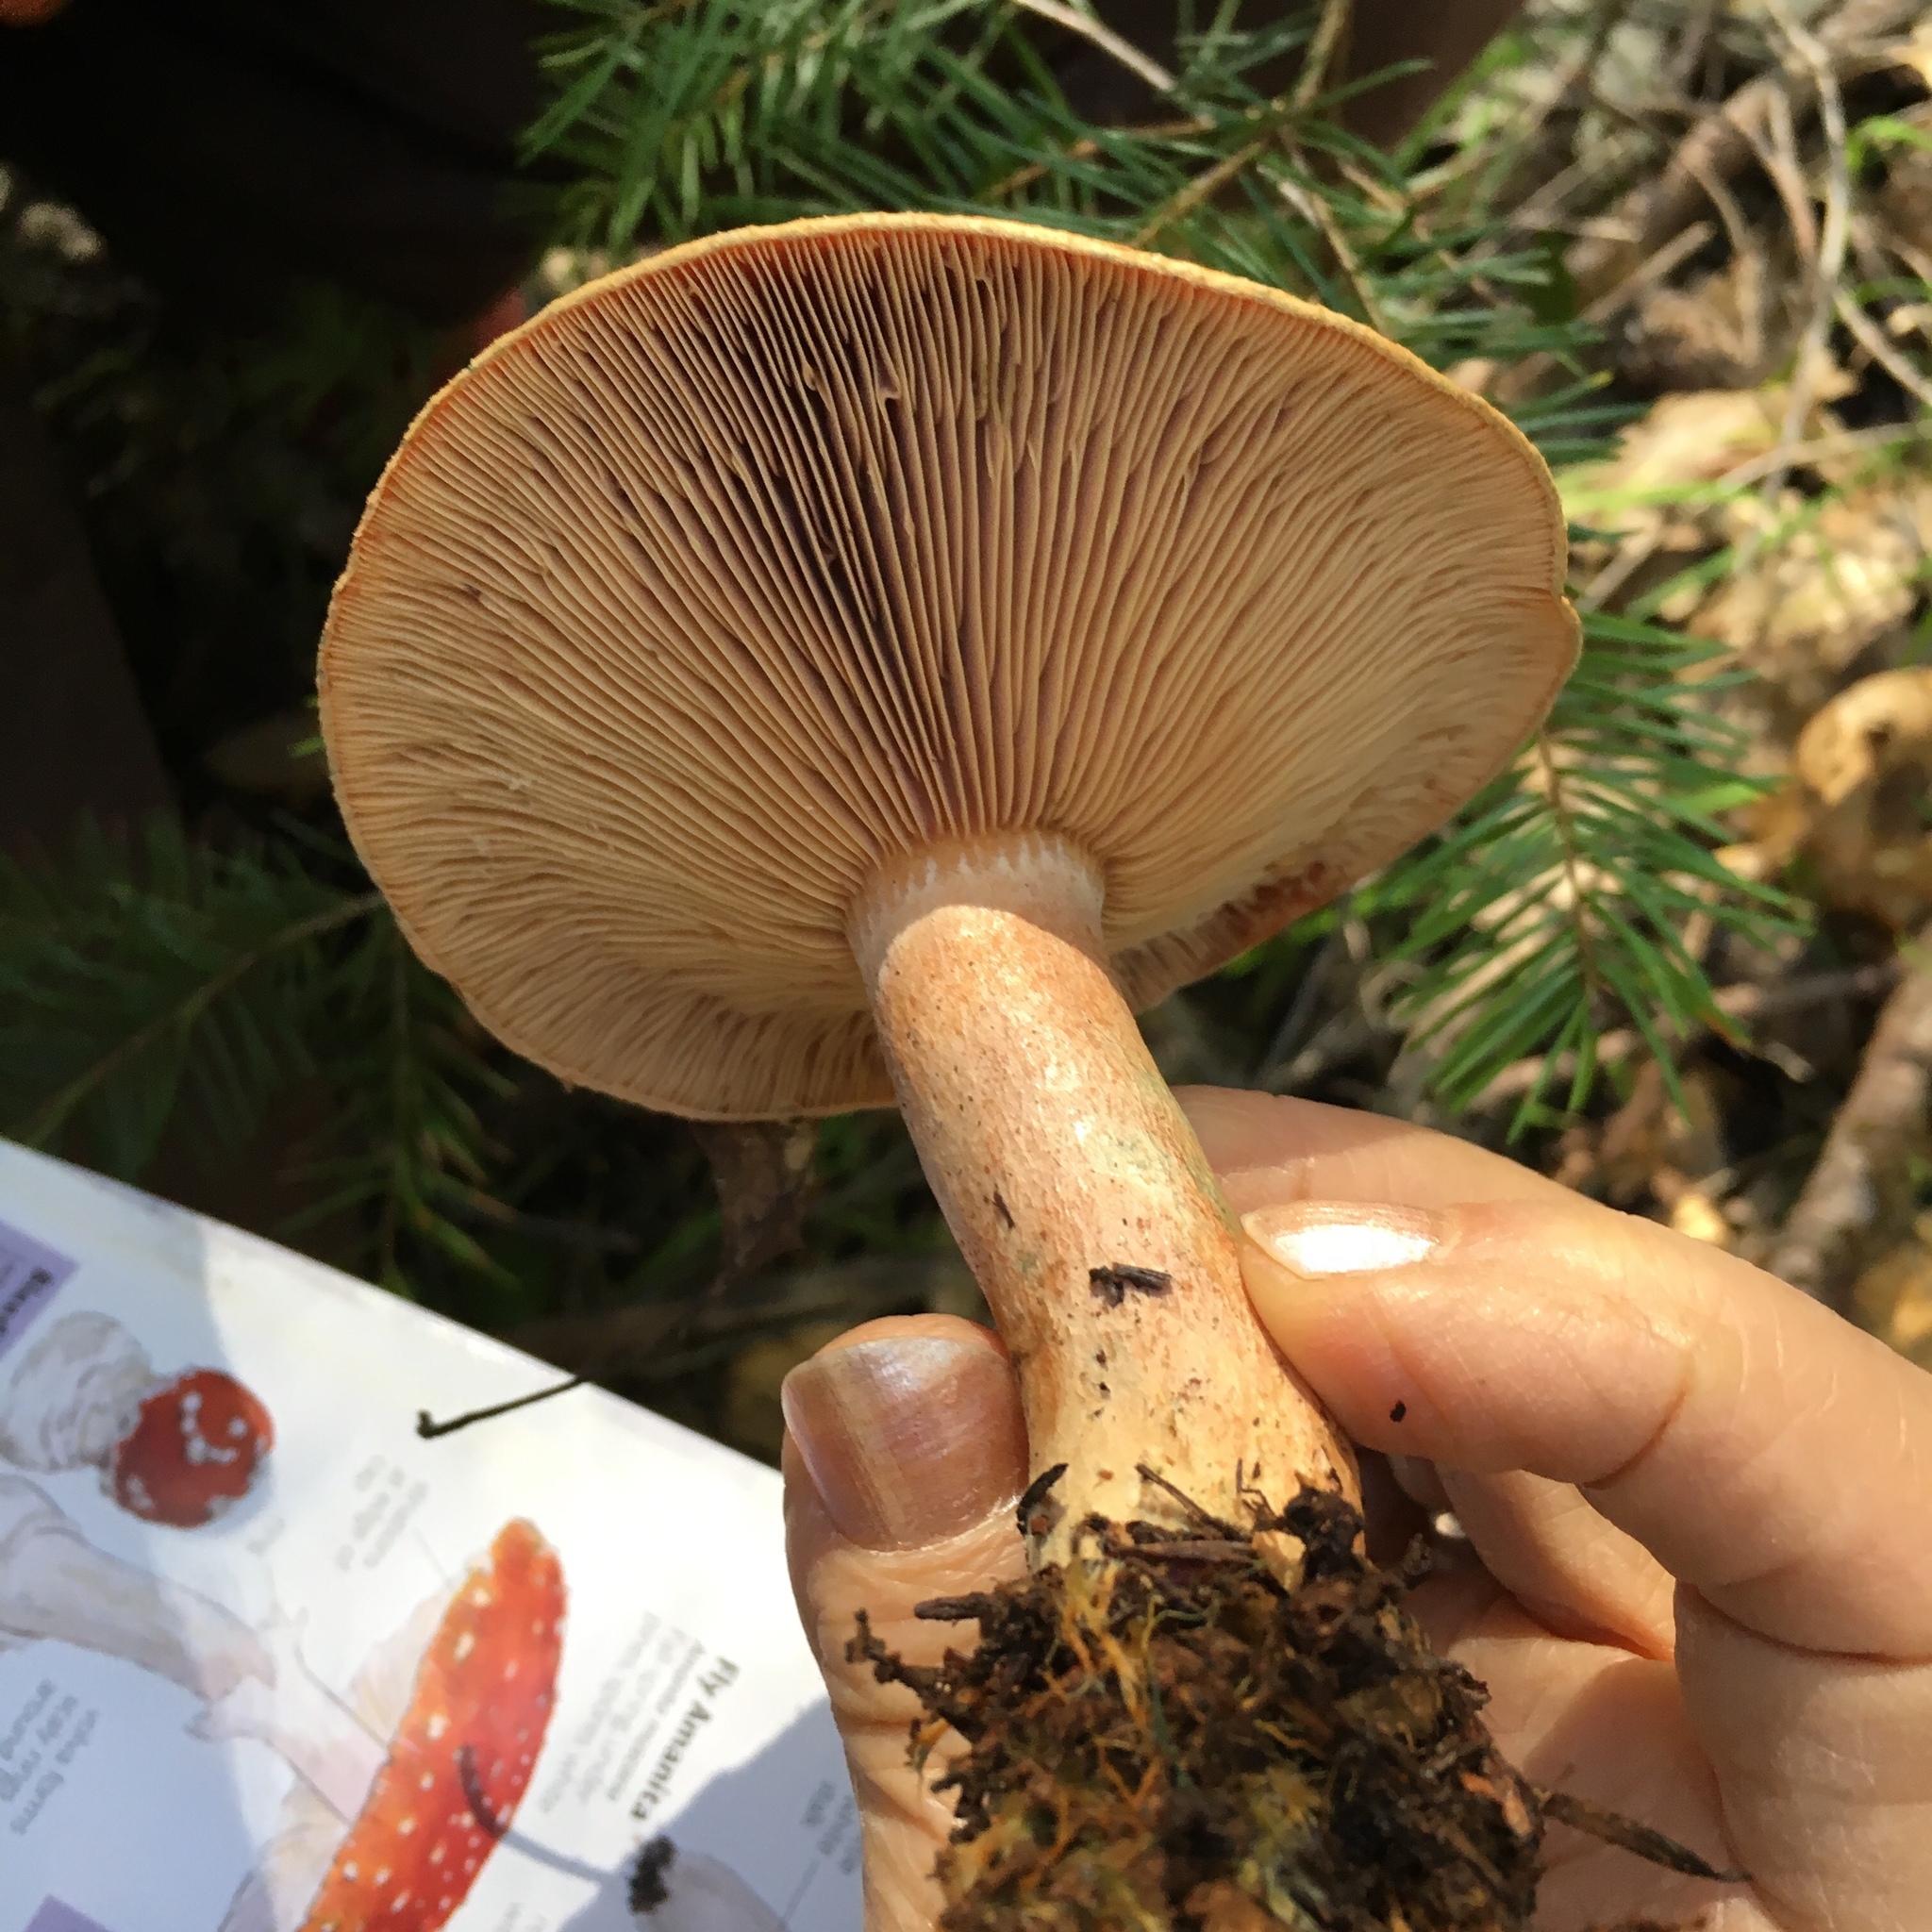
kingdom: Fungi
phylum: Basidiomycota
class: Agaricomycetes
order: Russulales
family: Russulaceae
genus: Lactarius
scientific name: Lactarius rubrilacteus
